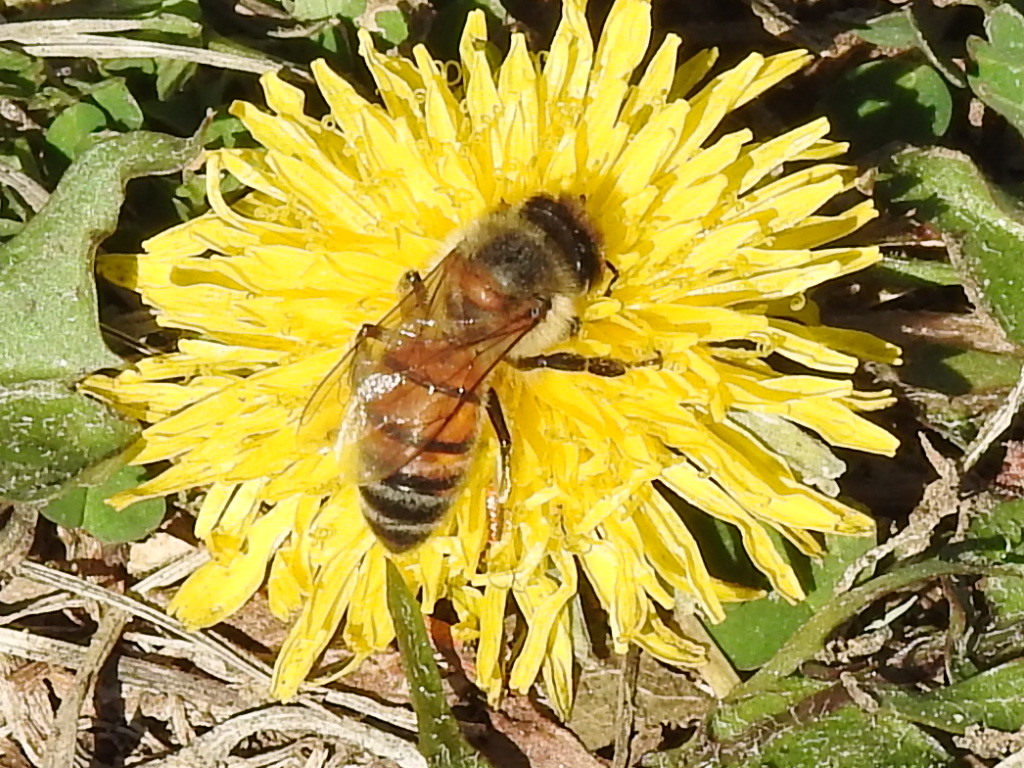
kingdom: Animalia
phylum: Arthropoda
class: Insecta
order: Hymenoptera
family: Apidae
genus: Apis
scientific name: Apis mellifera
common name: Honey bee
